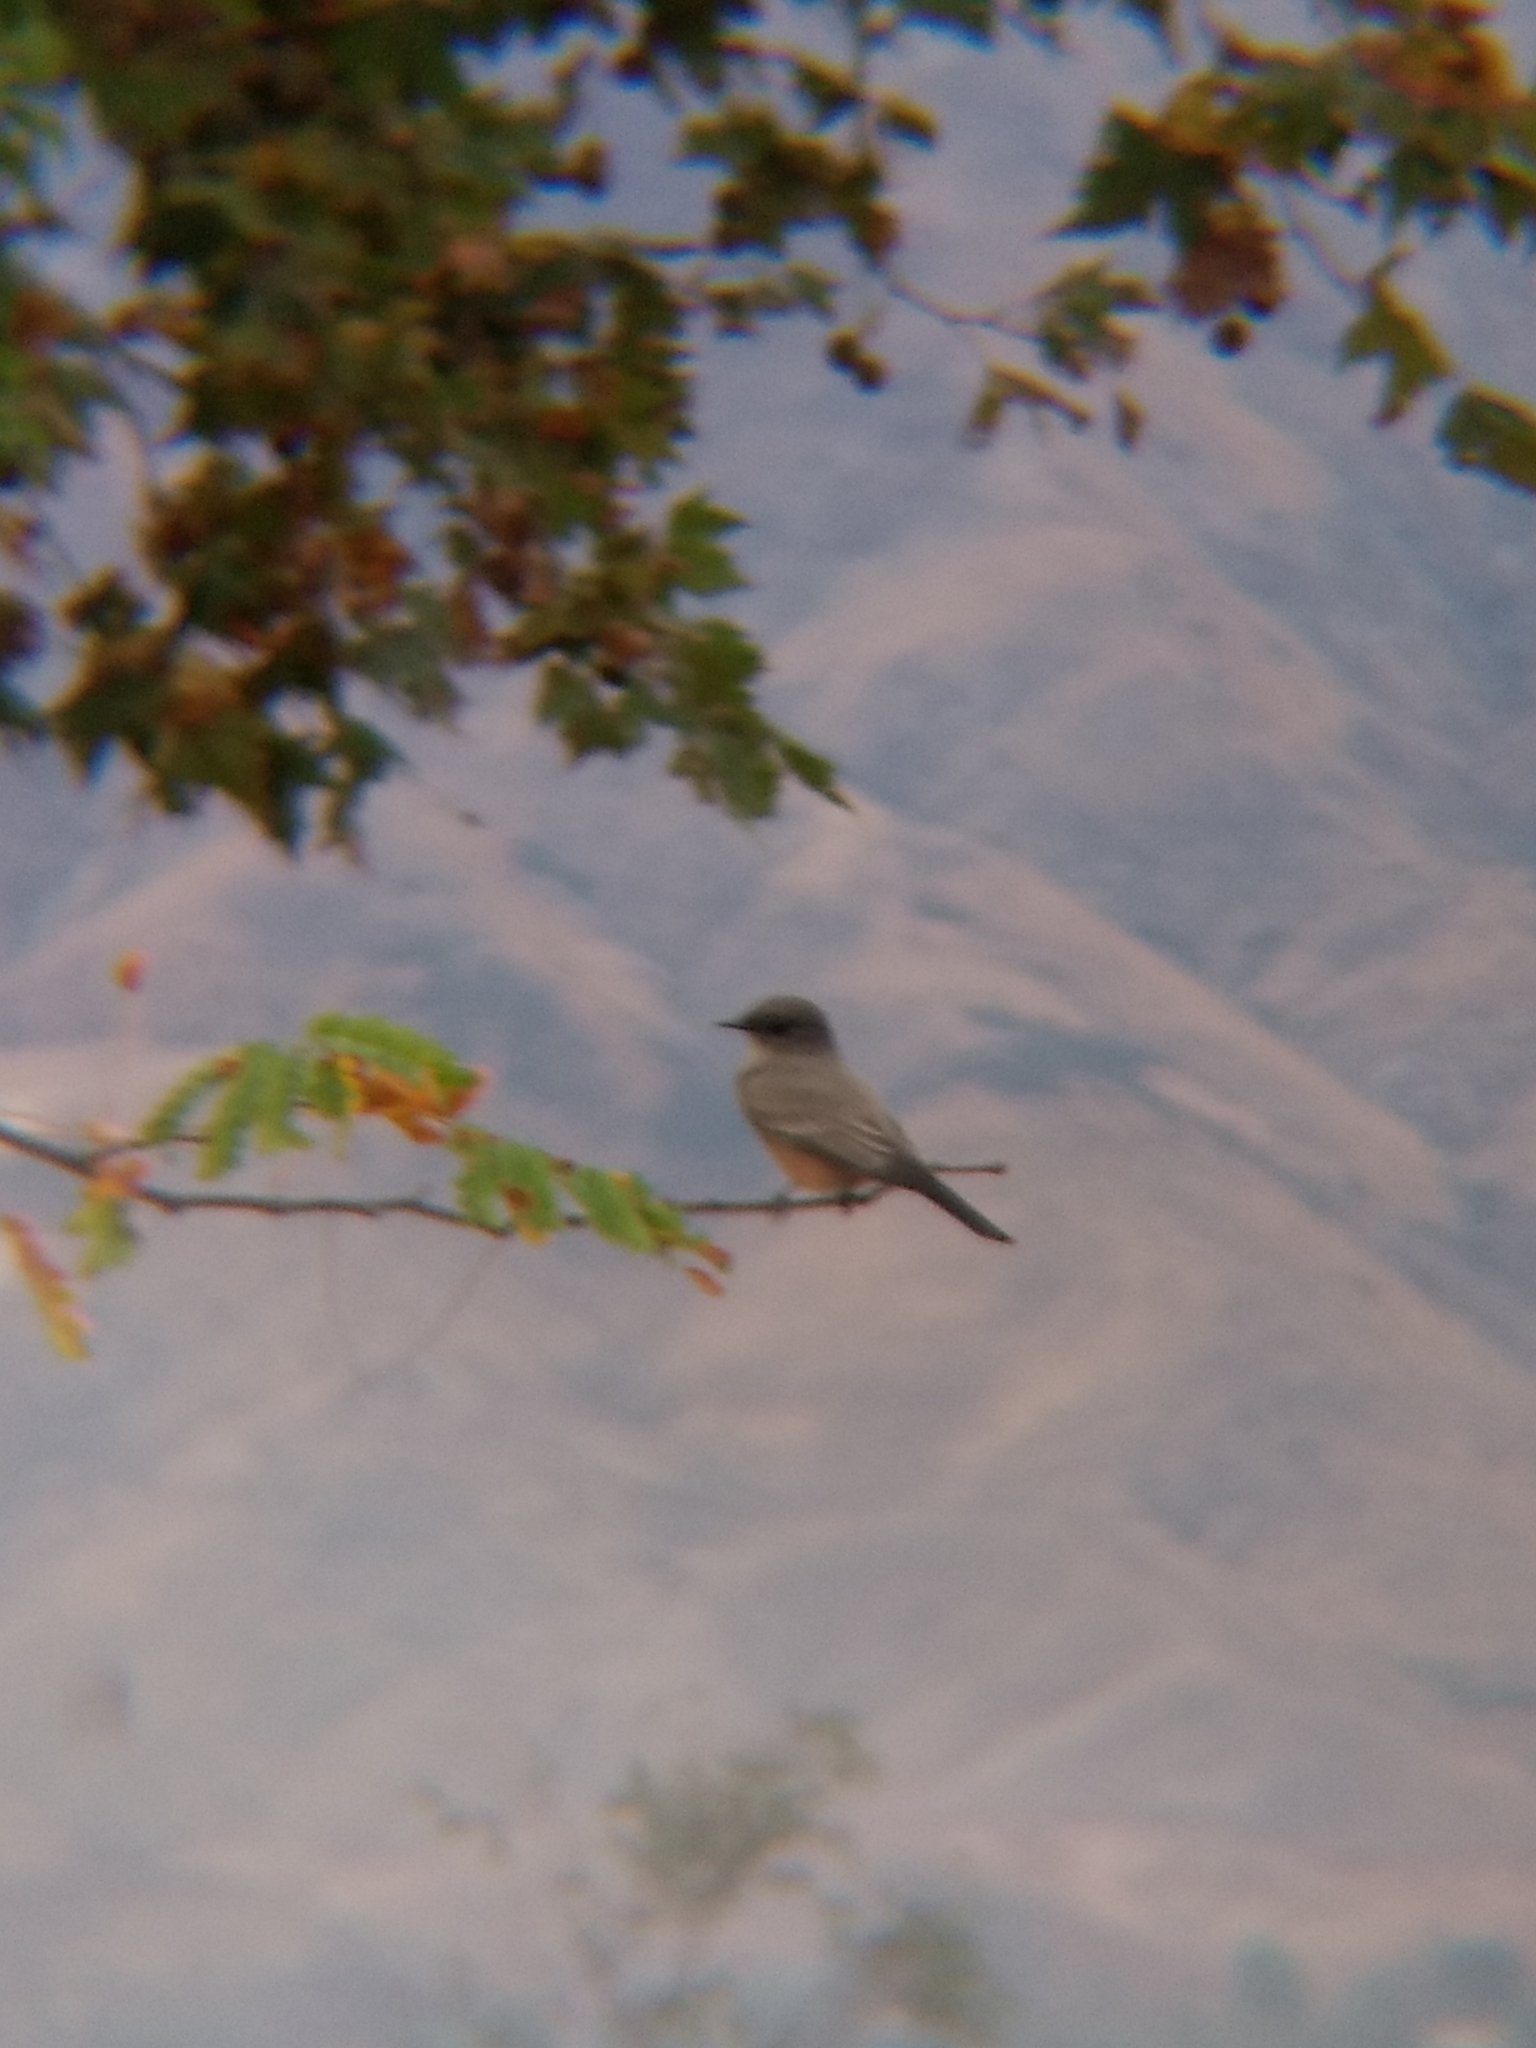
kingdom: Animalia
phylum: Chordata
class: Aves
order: Passeriformes
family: Tyrannidae
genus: Sayornis
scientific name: Sayornis saya
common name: Say's phoebe
